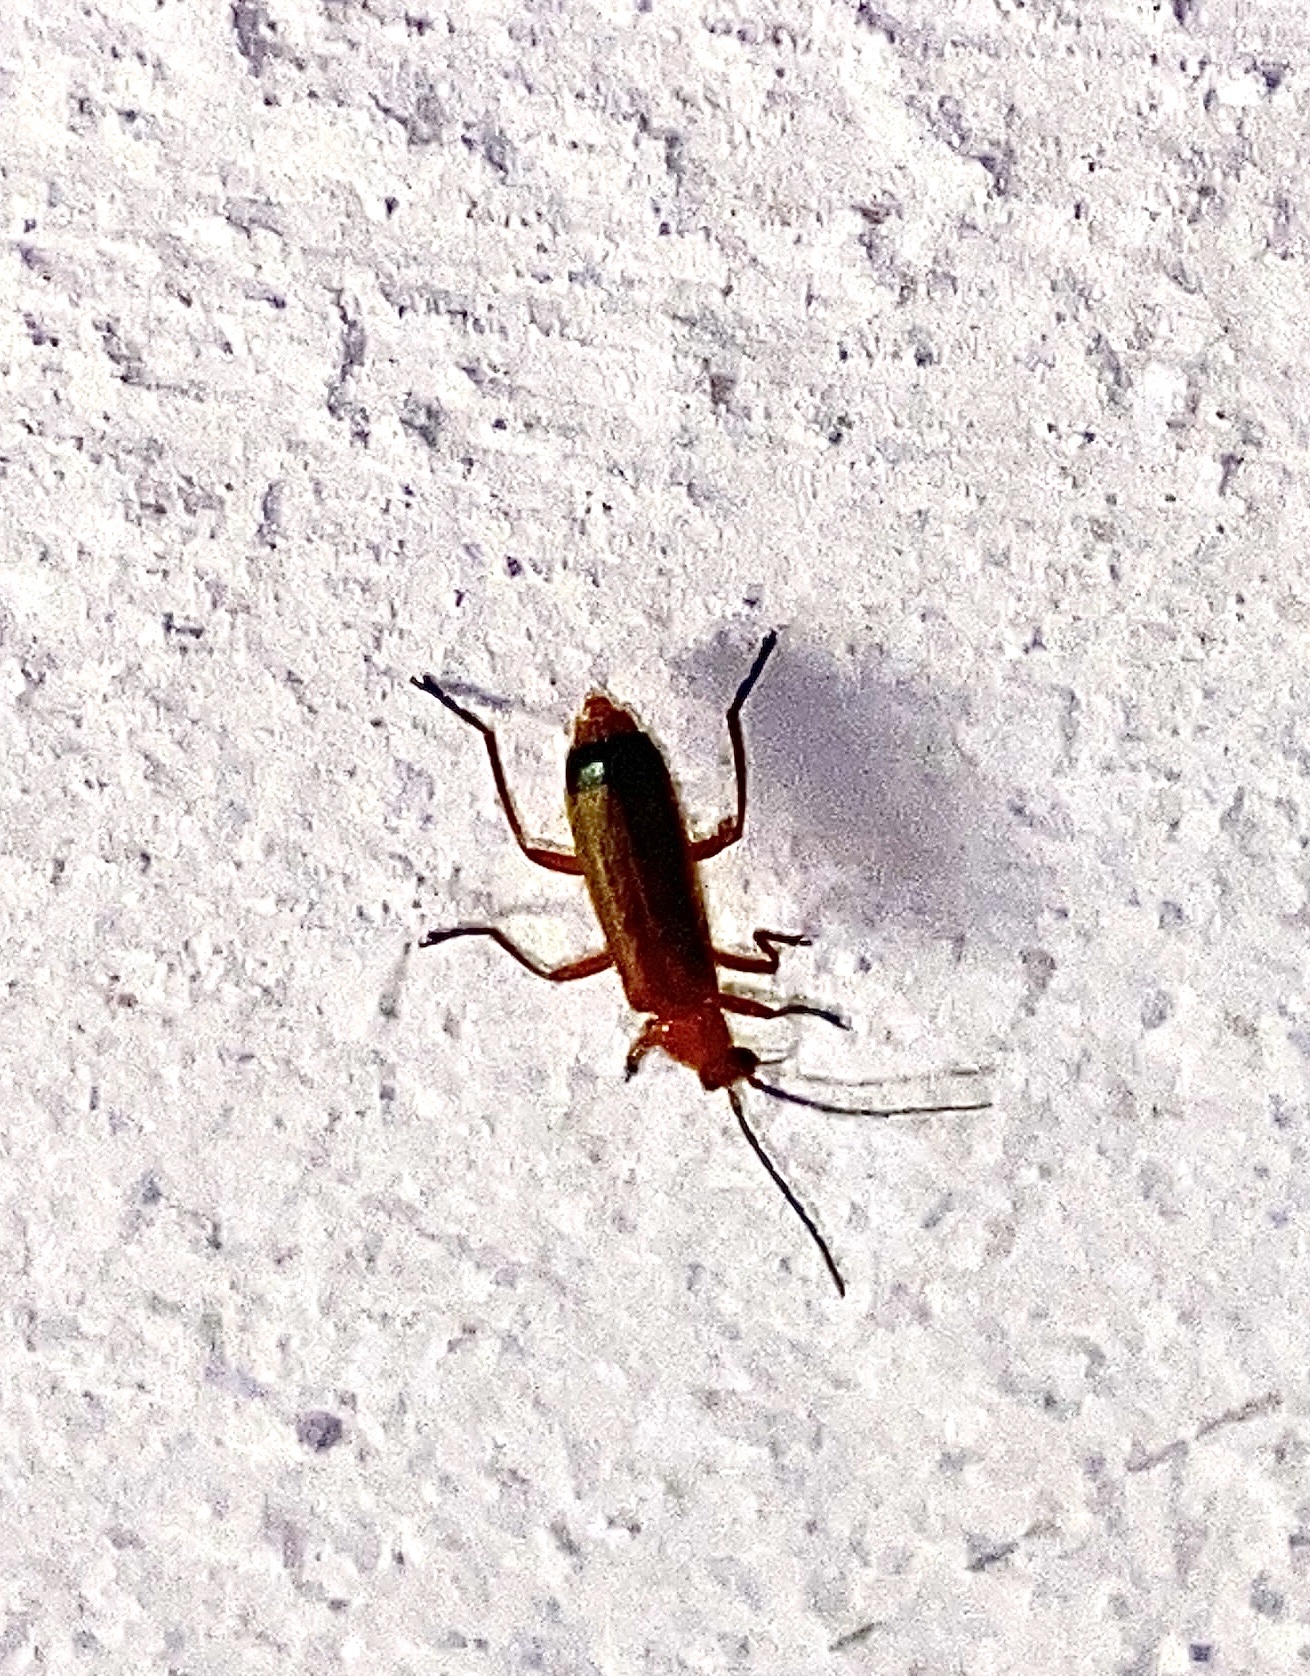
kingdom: Animalia
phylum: Arthropoda
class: Insecta
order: Coleoptera
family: Cantharidae
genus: Rhagonycha
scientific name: Rhagonycha fulva
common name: Common red soldier beetle
